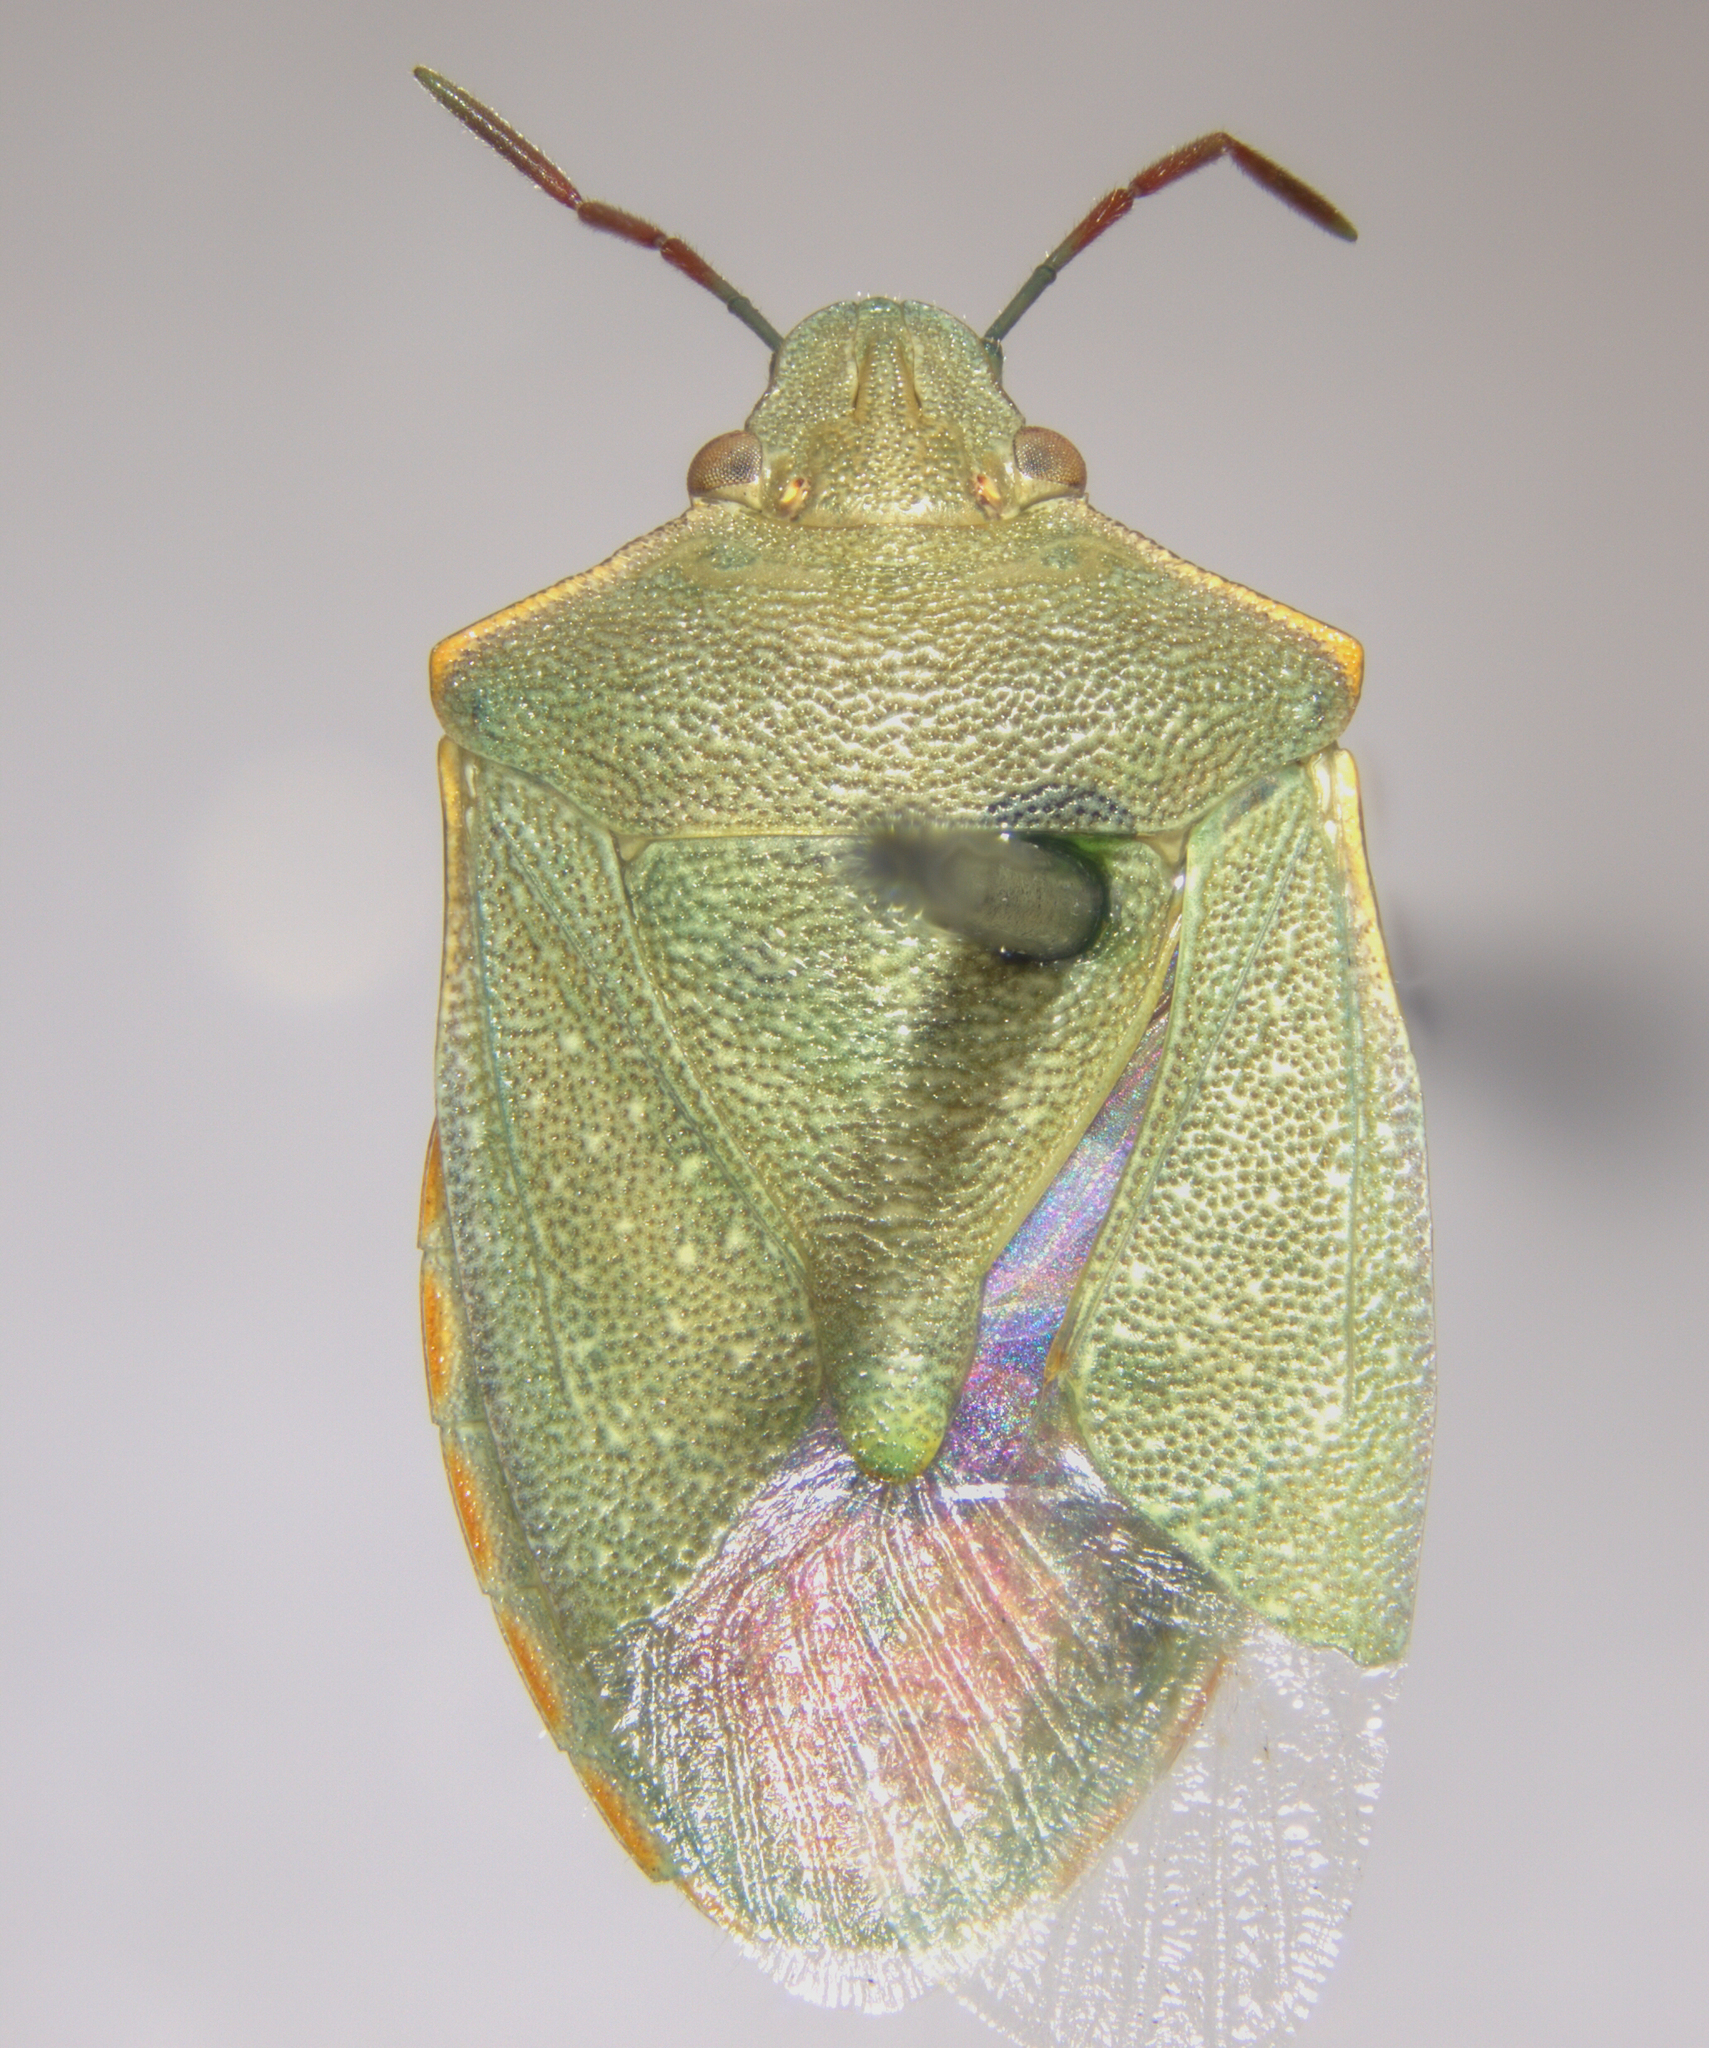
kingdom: Animalia
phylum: Arthropoda
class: Insecta
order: Hemiptera
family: Pentatomidae
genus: Thyanta
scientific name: Thyanta accerra
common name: Stink bug
